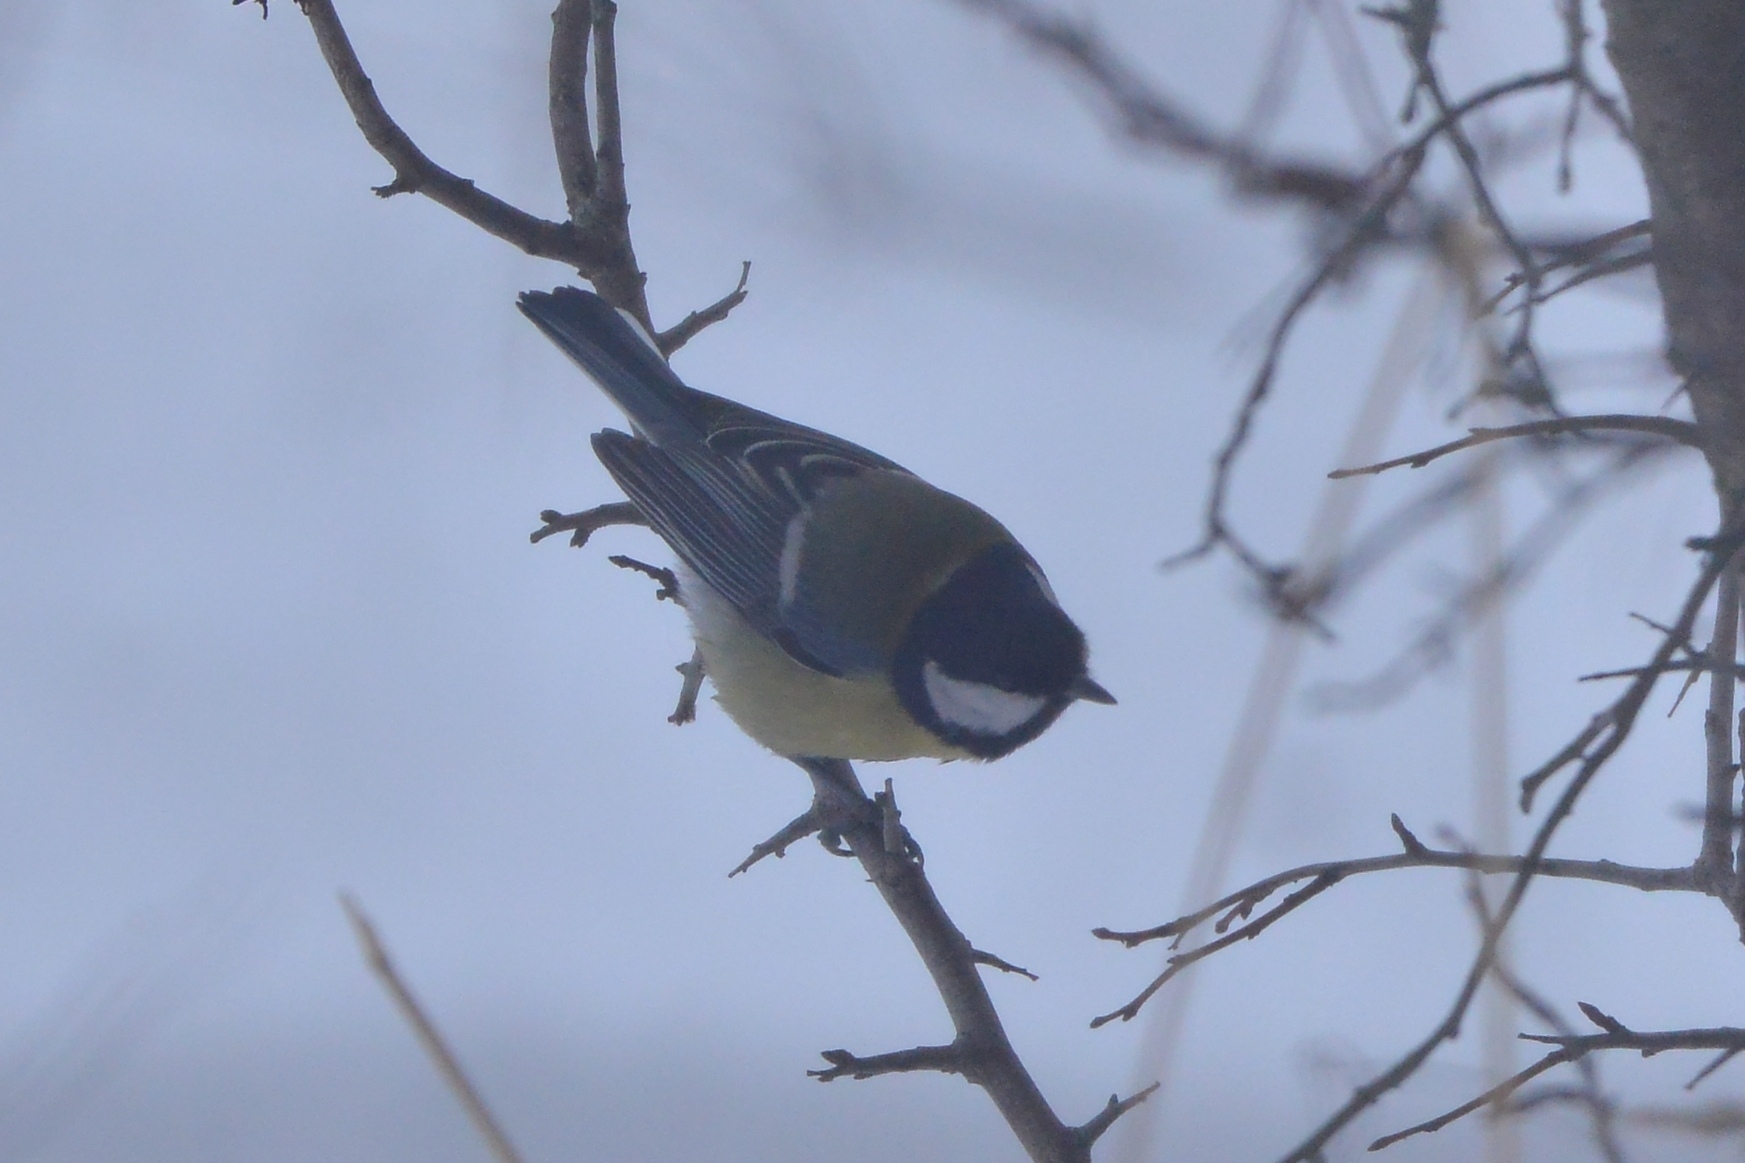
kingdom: Animalia
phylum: Chordata
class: Aves
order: Passeriformes
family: Paridae
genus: Parus
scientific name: Parus major
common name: Great tit
